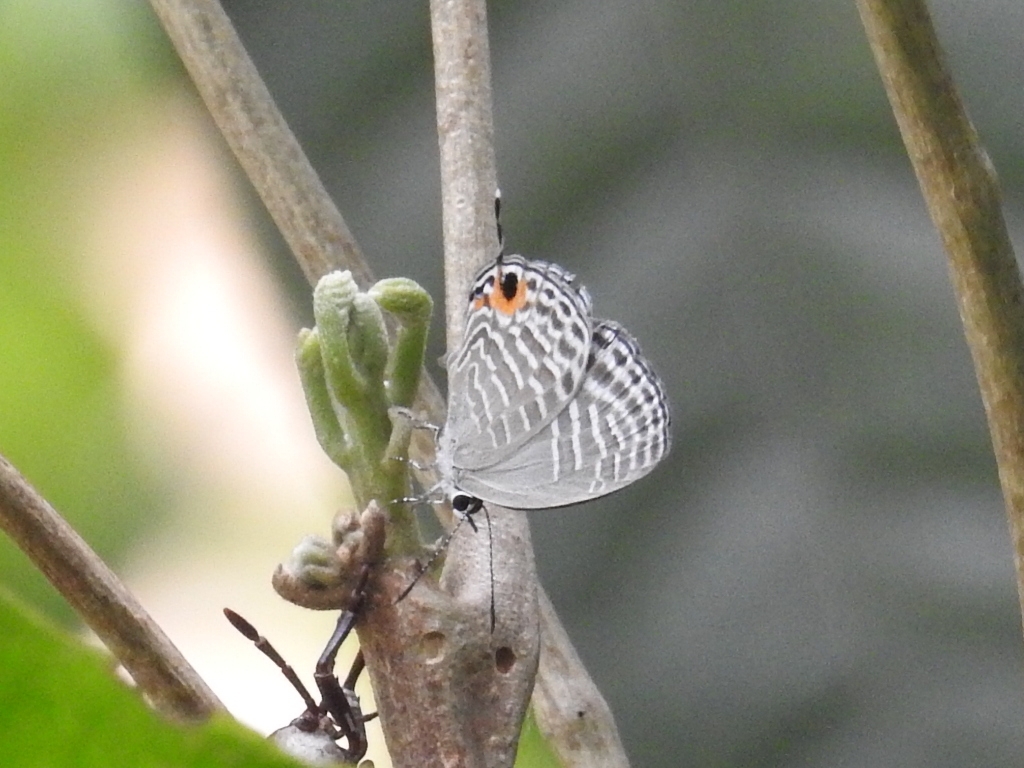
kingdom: Animalia
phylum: Arthropoda
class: Insecta
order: Lepidoptera
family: Lycaenidae
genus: Jamides
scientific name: Jamides alecto
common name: Metallic cerulean
